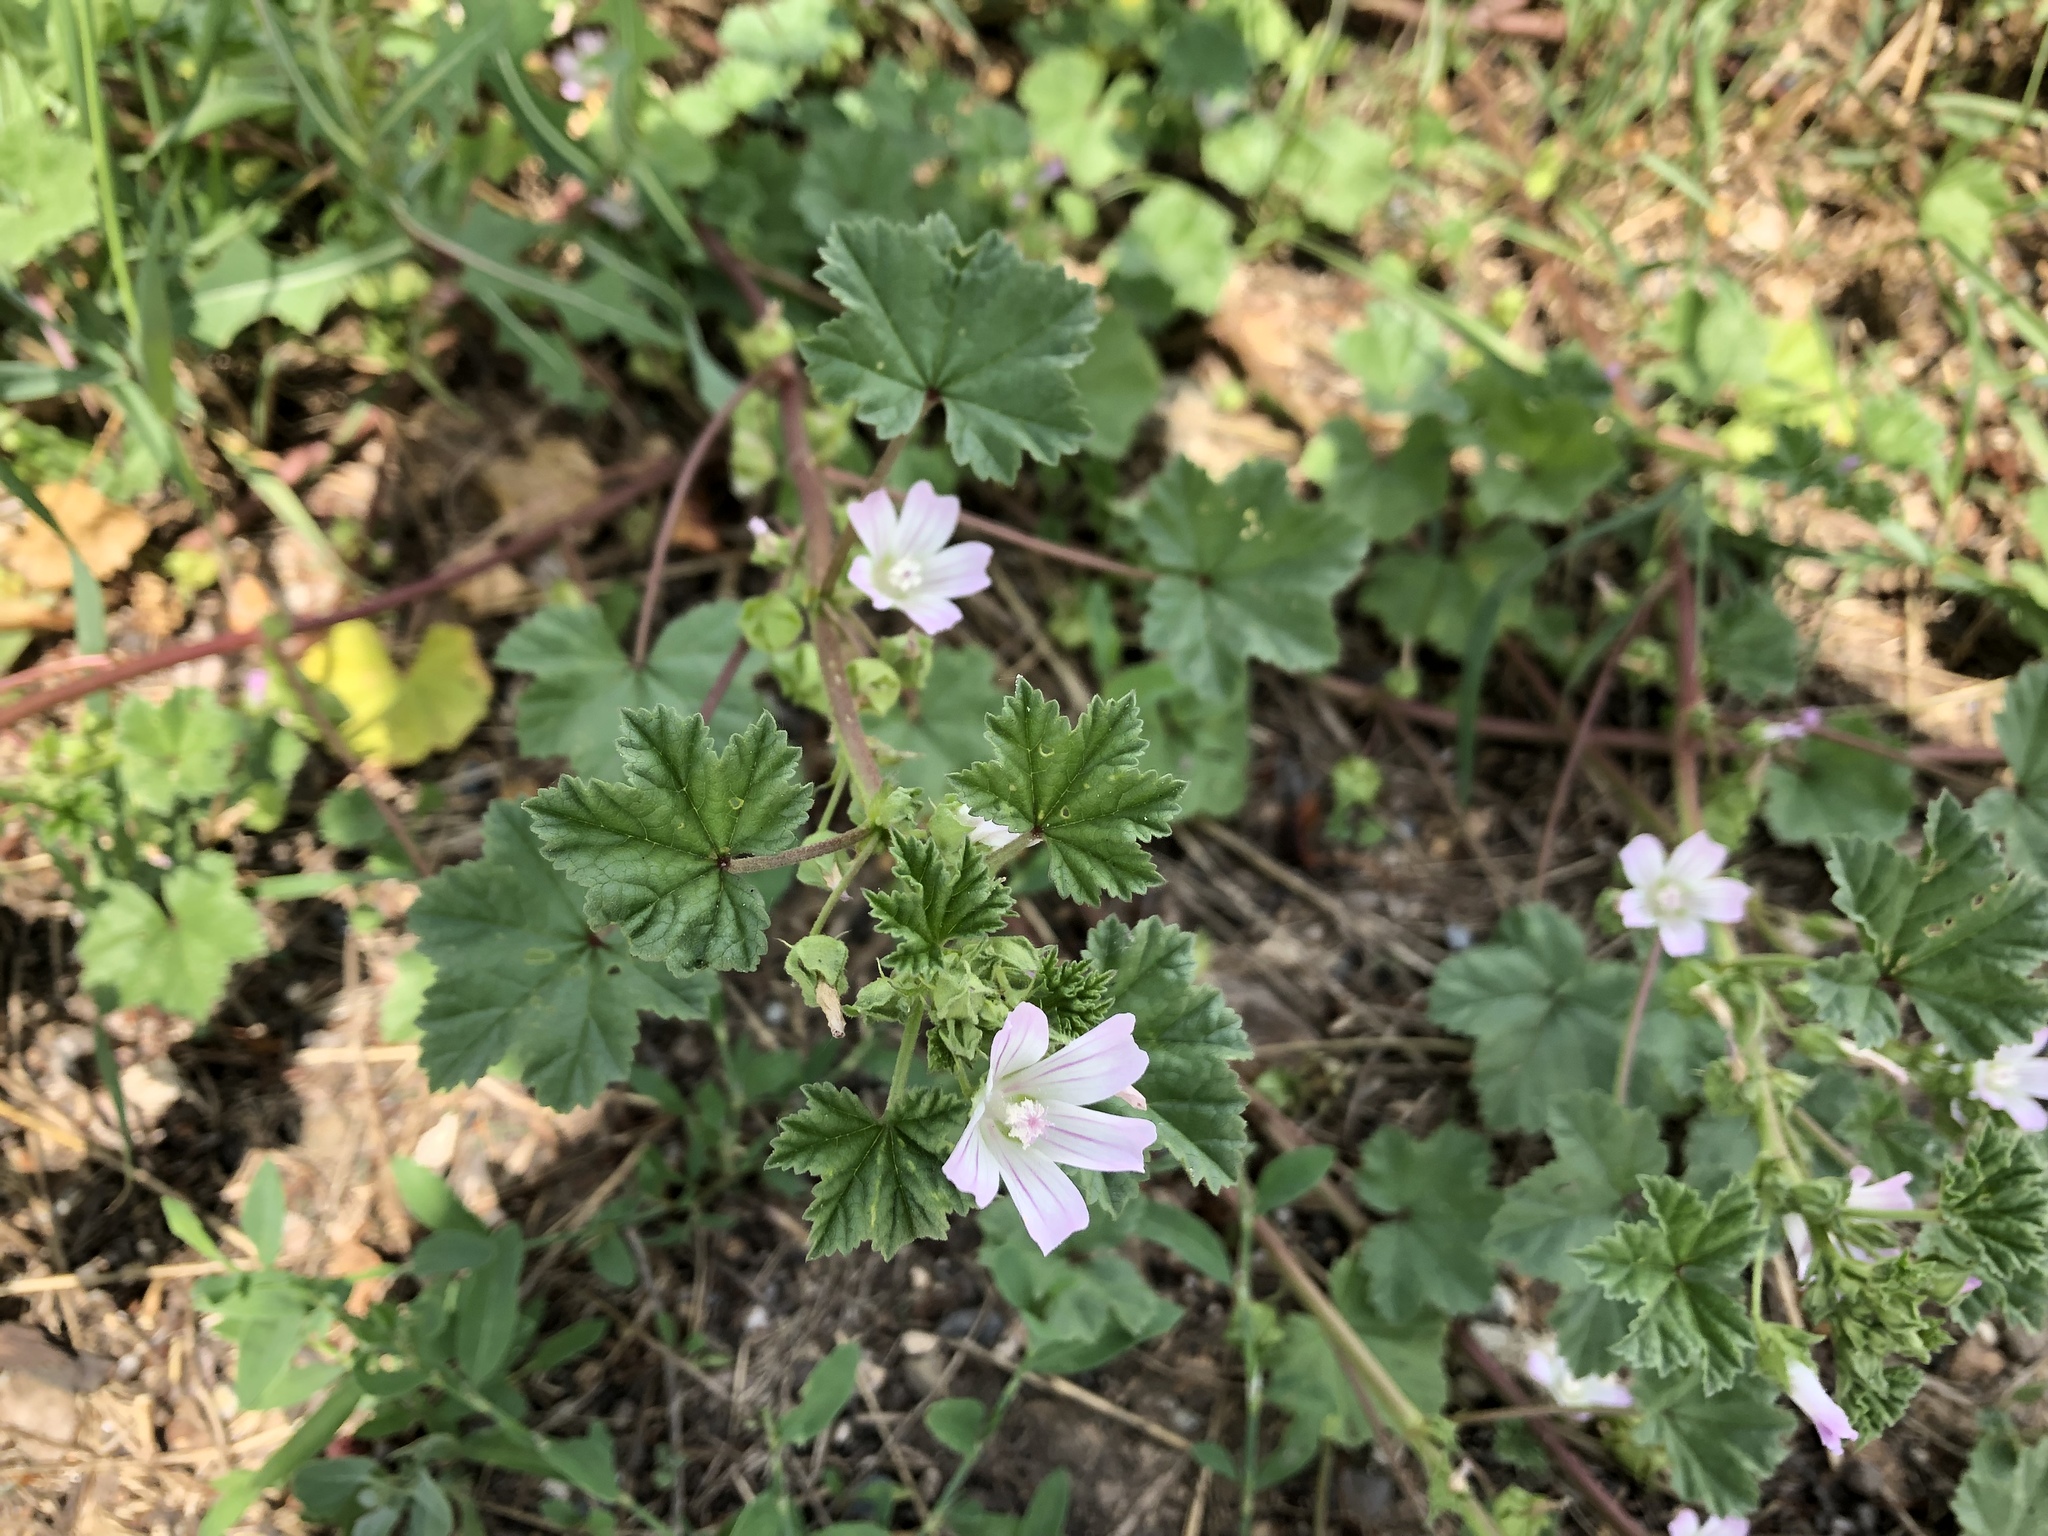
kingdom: Plantae
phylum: Tracheophyta
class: Magnoliopsida
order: Malvales
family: Malvaceae
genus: Malva
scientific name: Malva neglecta
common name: Common mallow
